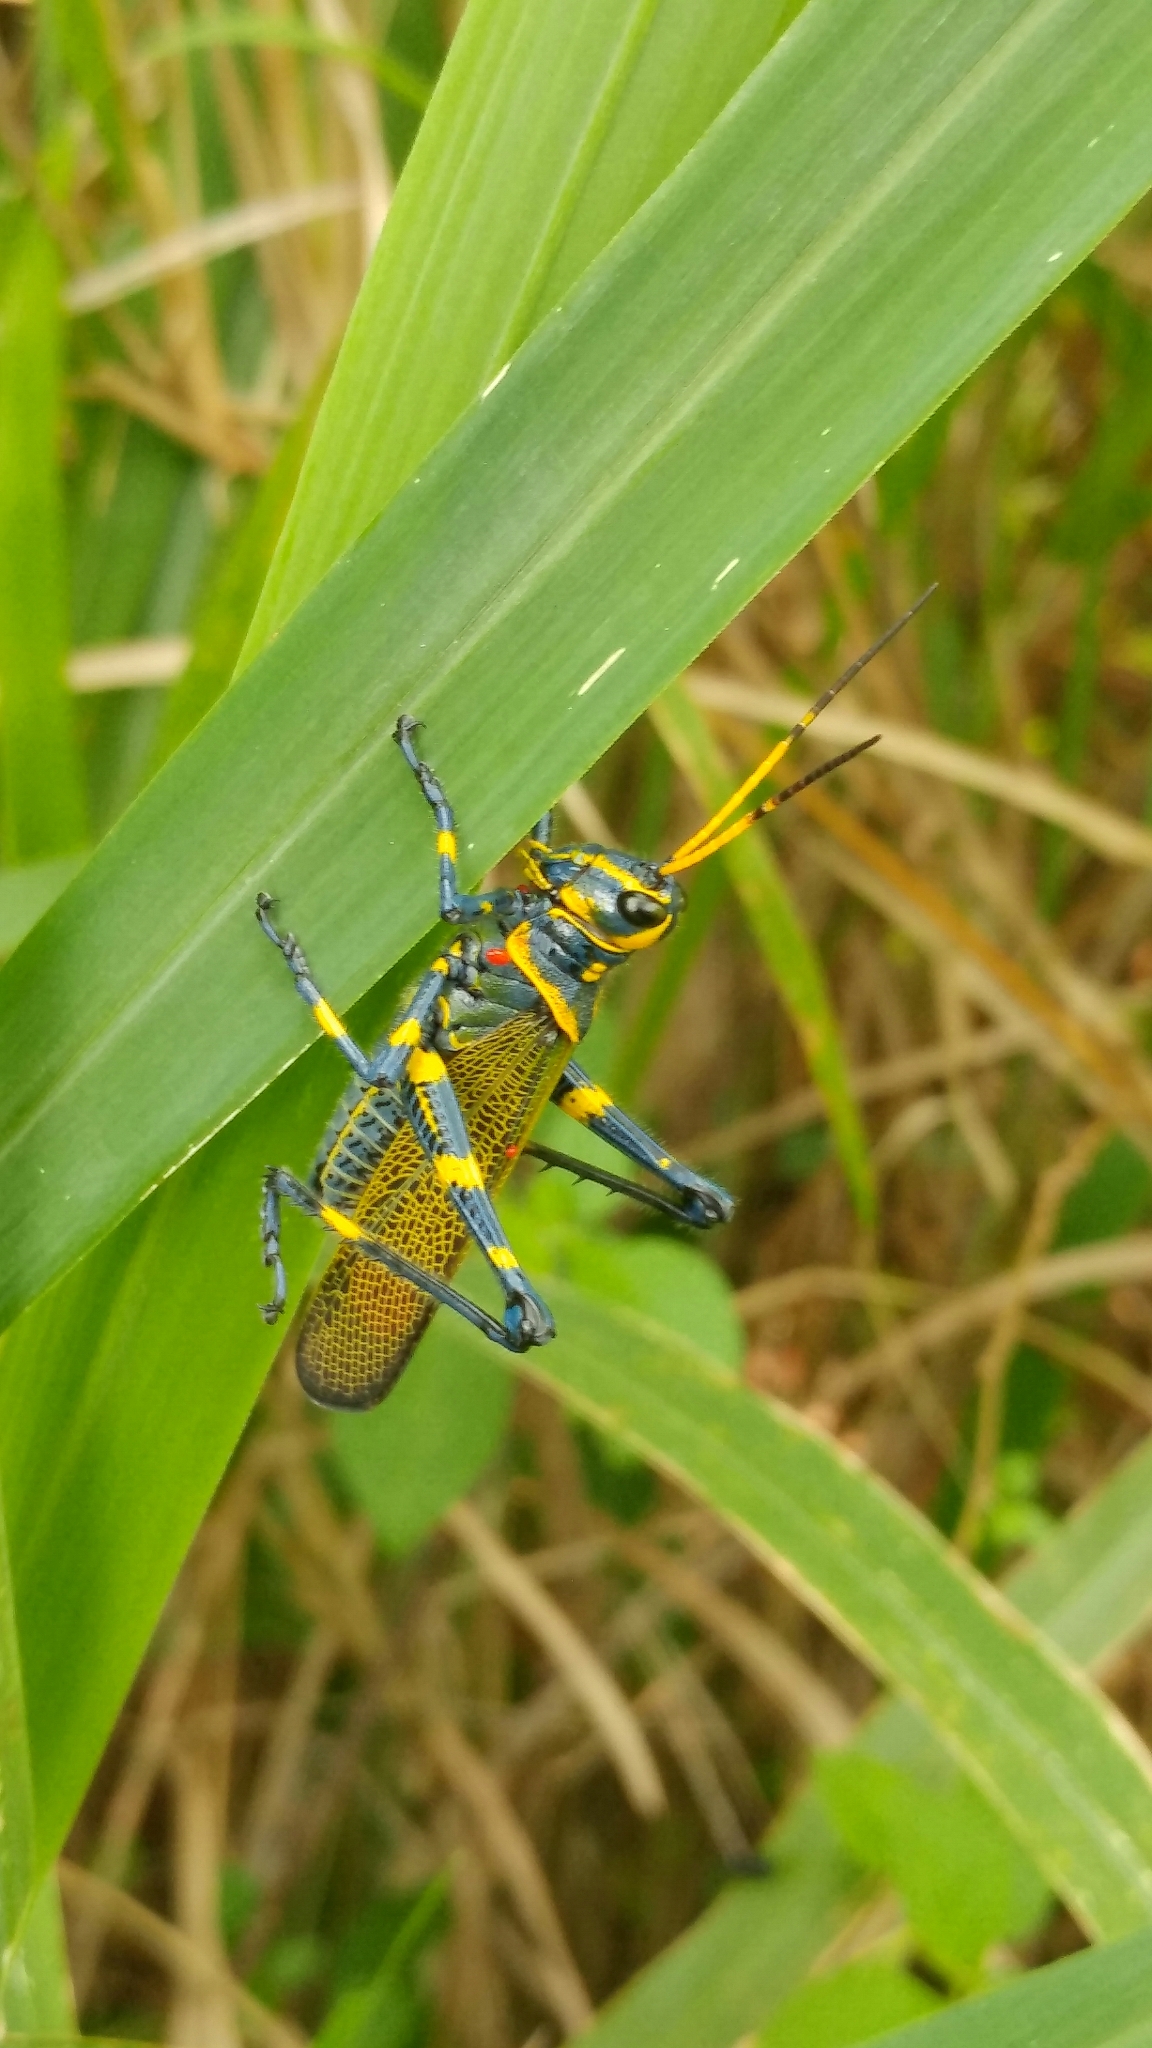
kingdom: Animalia
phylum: Arthropoda
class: Insecta
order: Orthoptera
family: Romaleidae
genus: Chromacris
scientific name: Chromacris colorata
